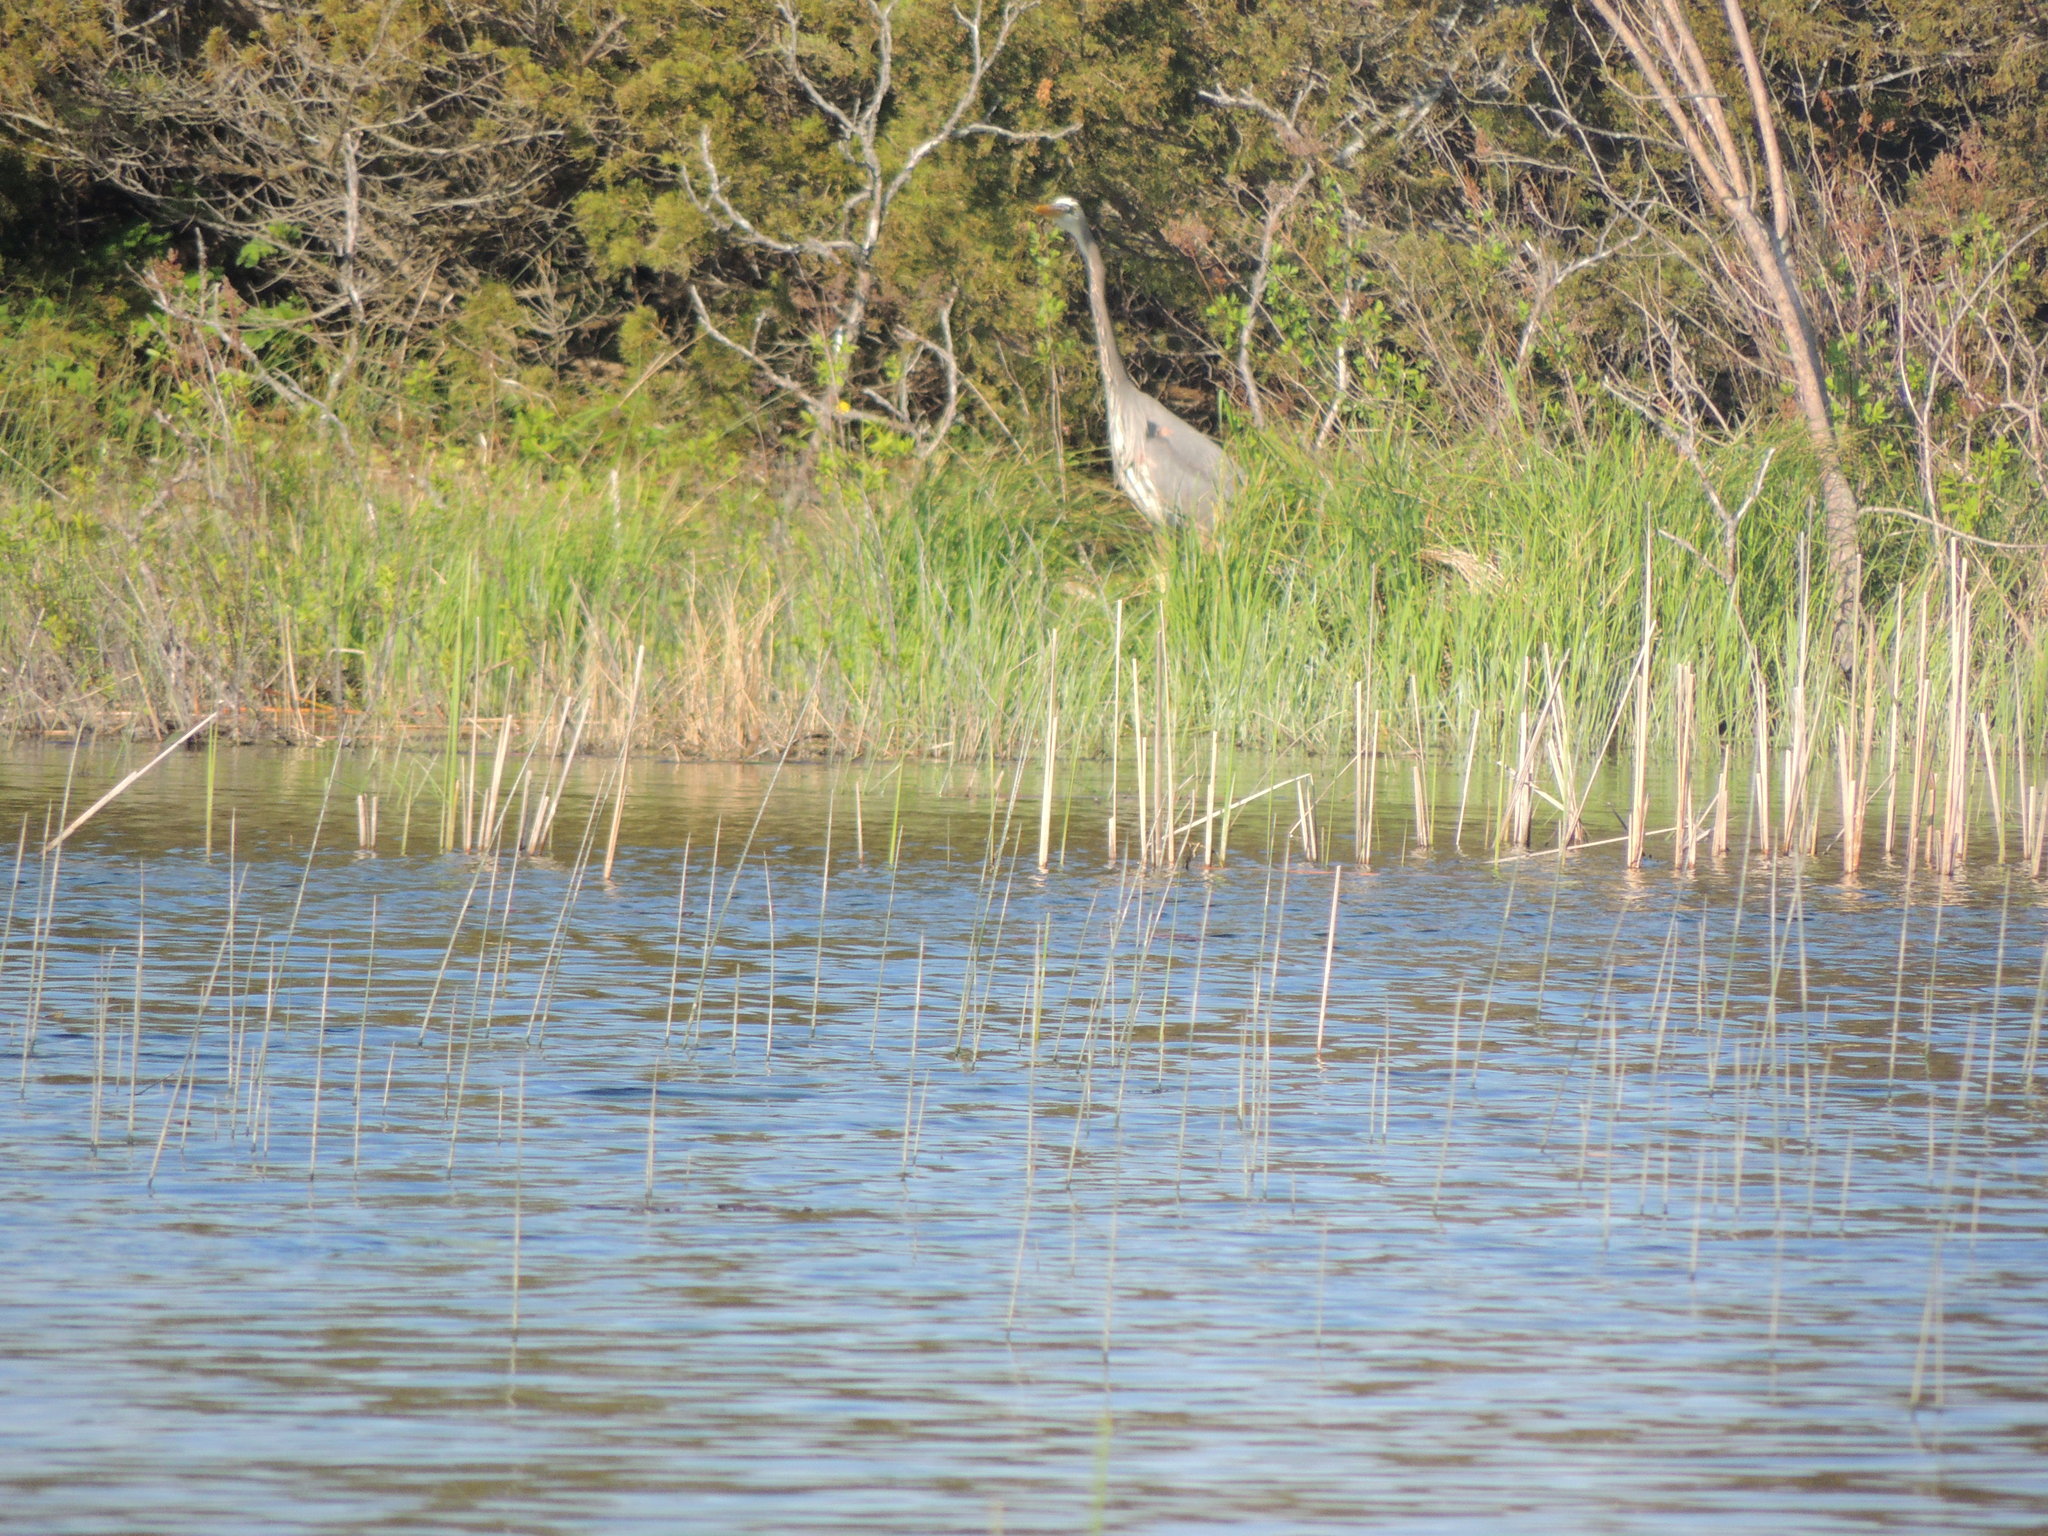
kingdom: Animalia
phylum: Chordata
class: Aves
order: Pelecaniformes
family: Ardeidae
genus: Ardea
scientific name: Ardea herodias
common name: Great blue heron
